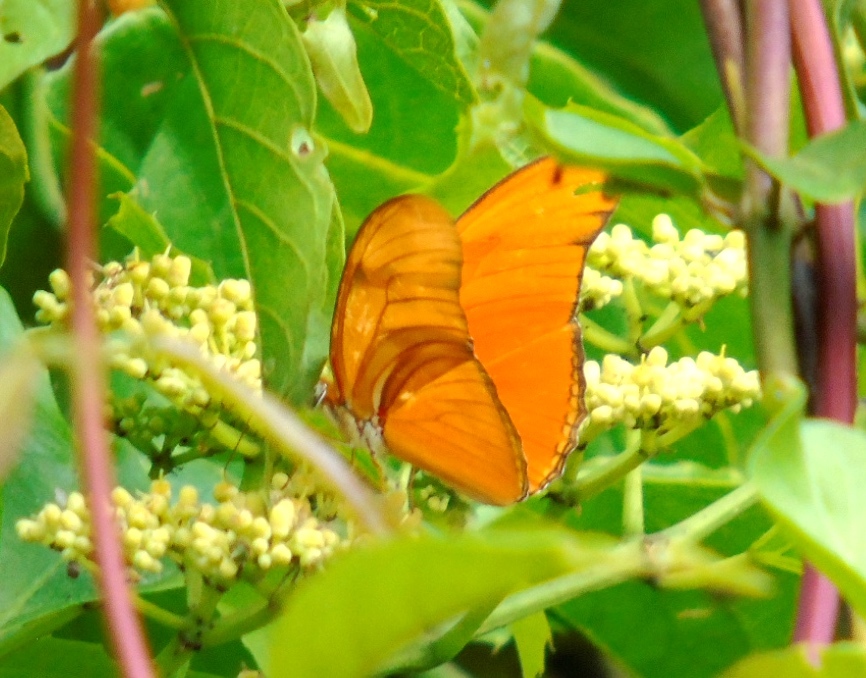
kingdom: Animalia
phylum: Arthropoda
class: Insecta
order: Lepidoptera
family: Nymphalidae
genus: Dryas
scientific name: Dryas iulia
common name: Flambeau
